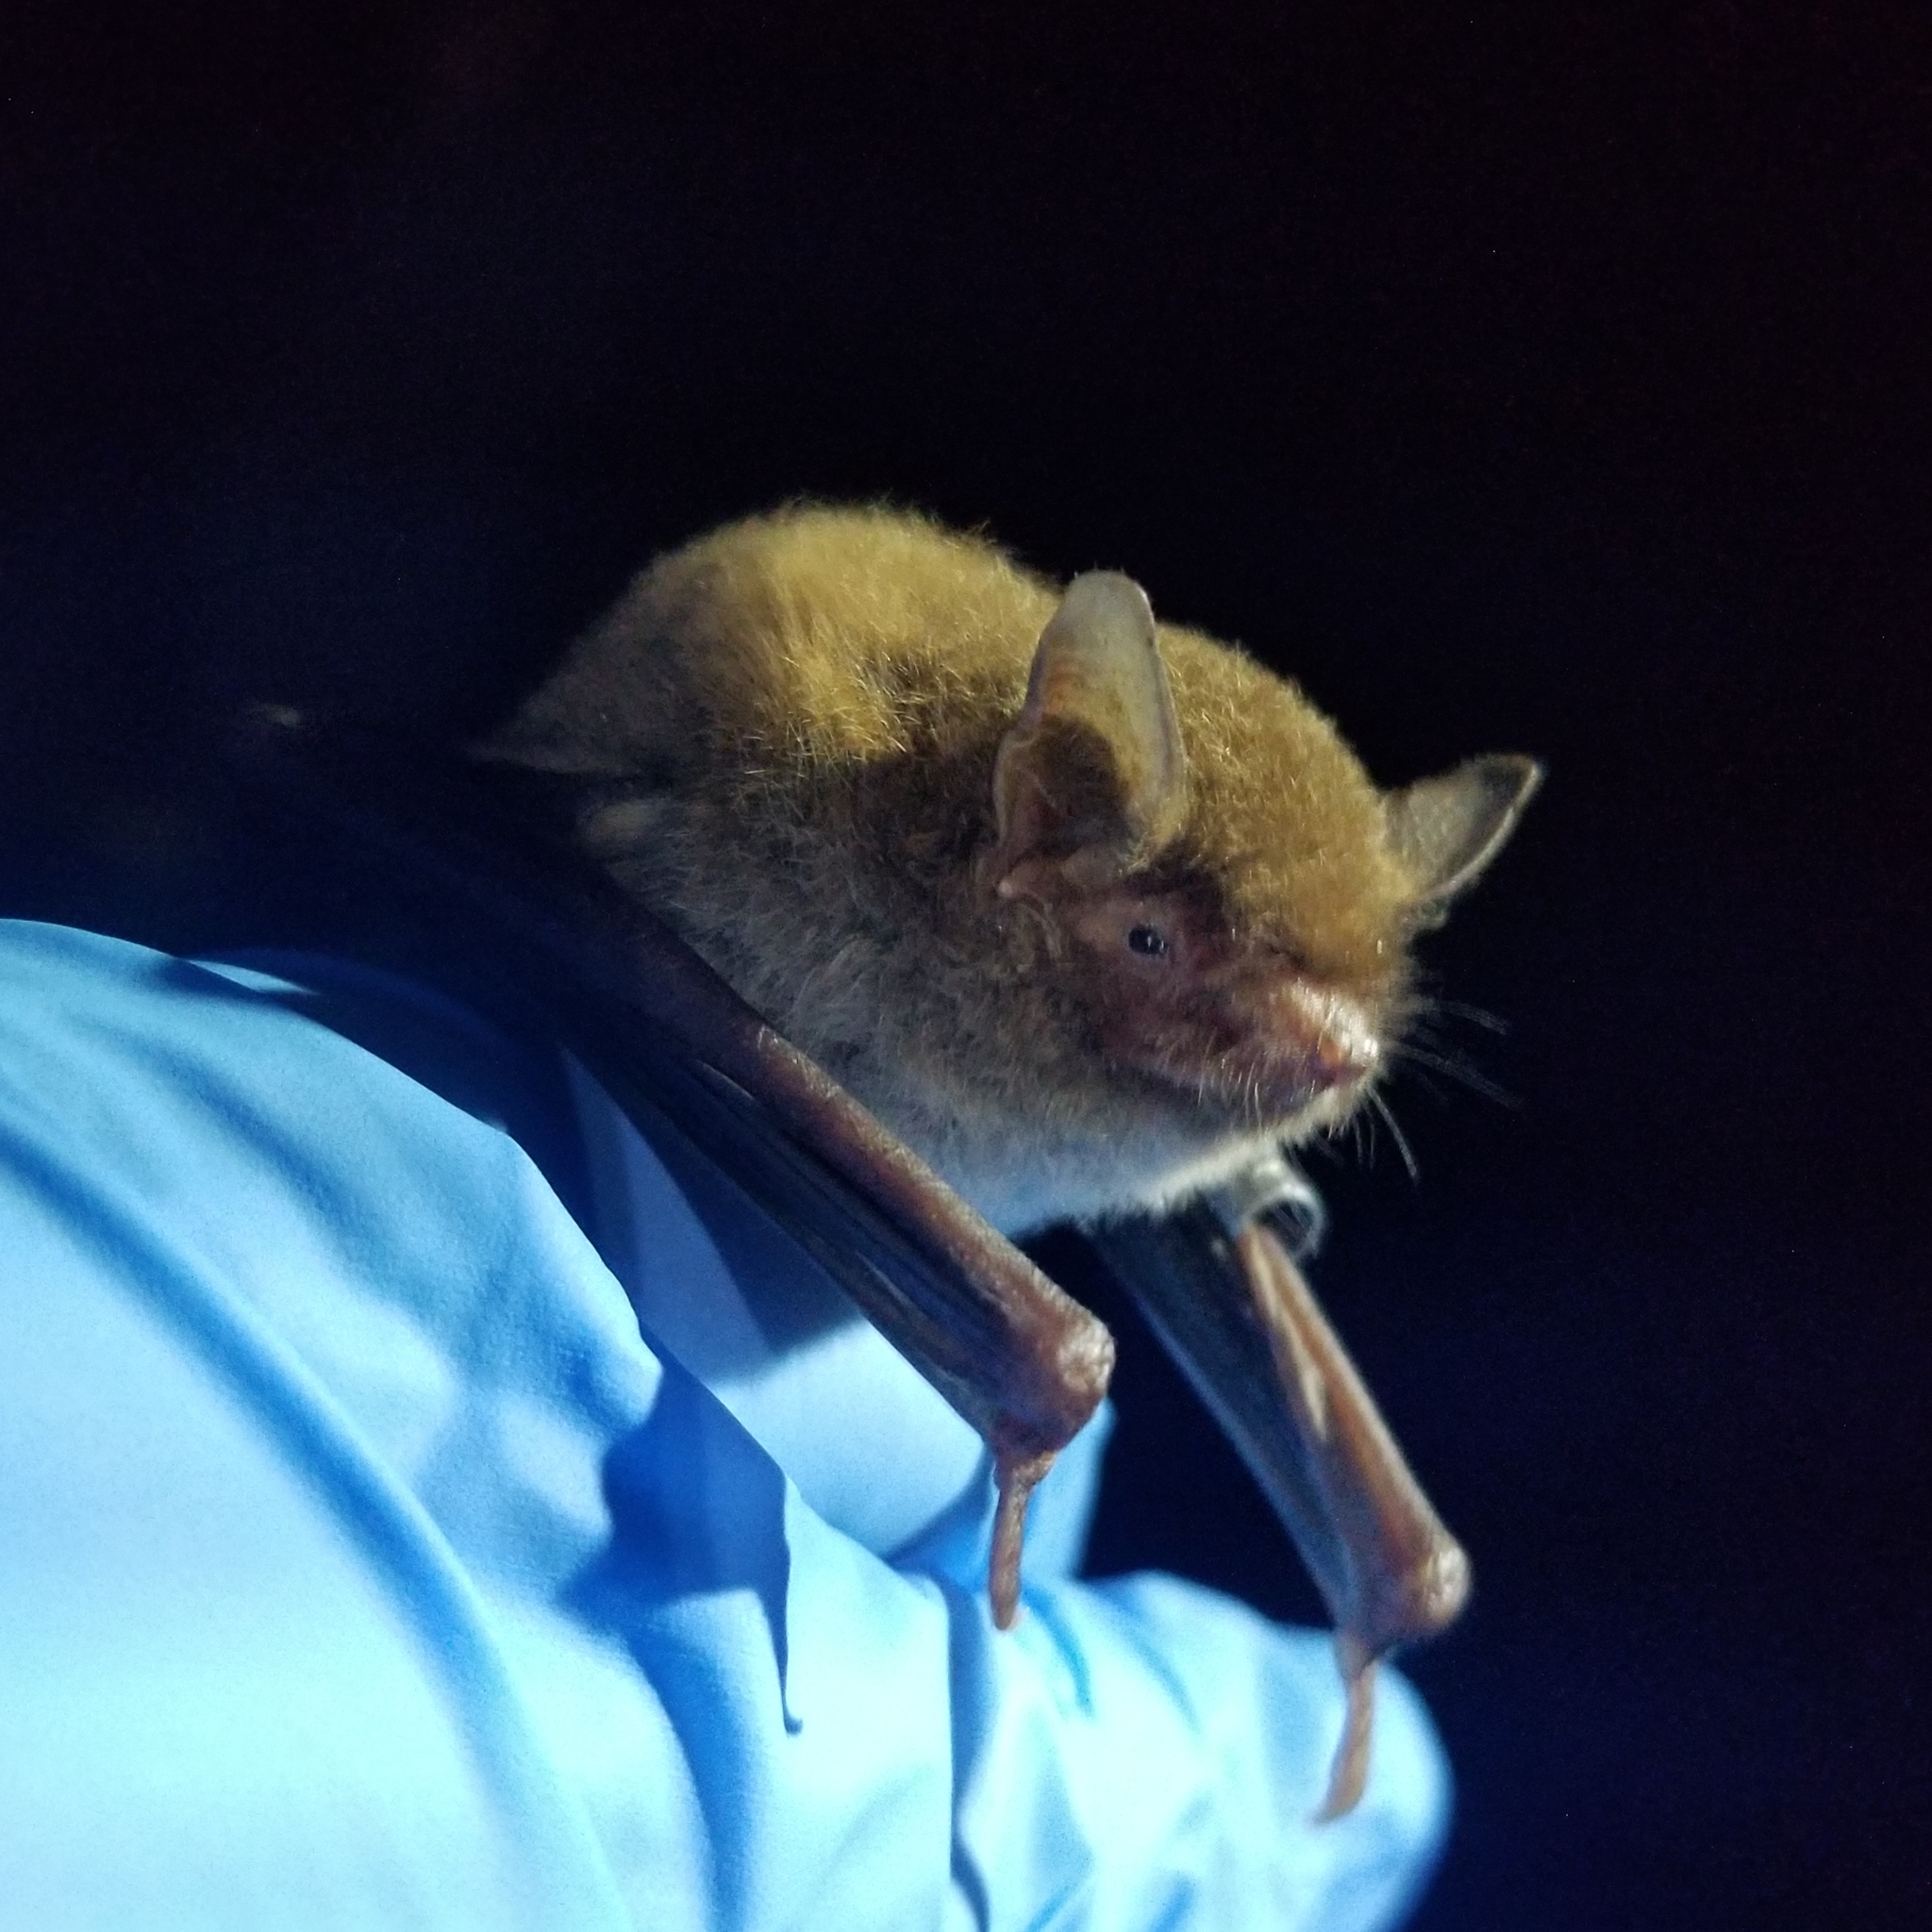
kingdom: Animalia
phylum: Chordata
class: Mammalia
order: Chiroptera
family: Vespertilionidae
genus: Myotis
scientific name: Myotis austroriparius
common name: Southeastern myotis
